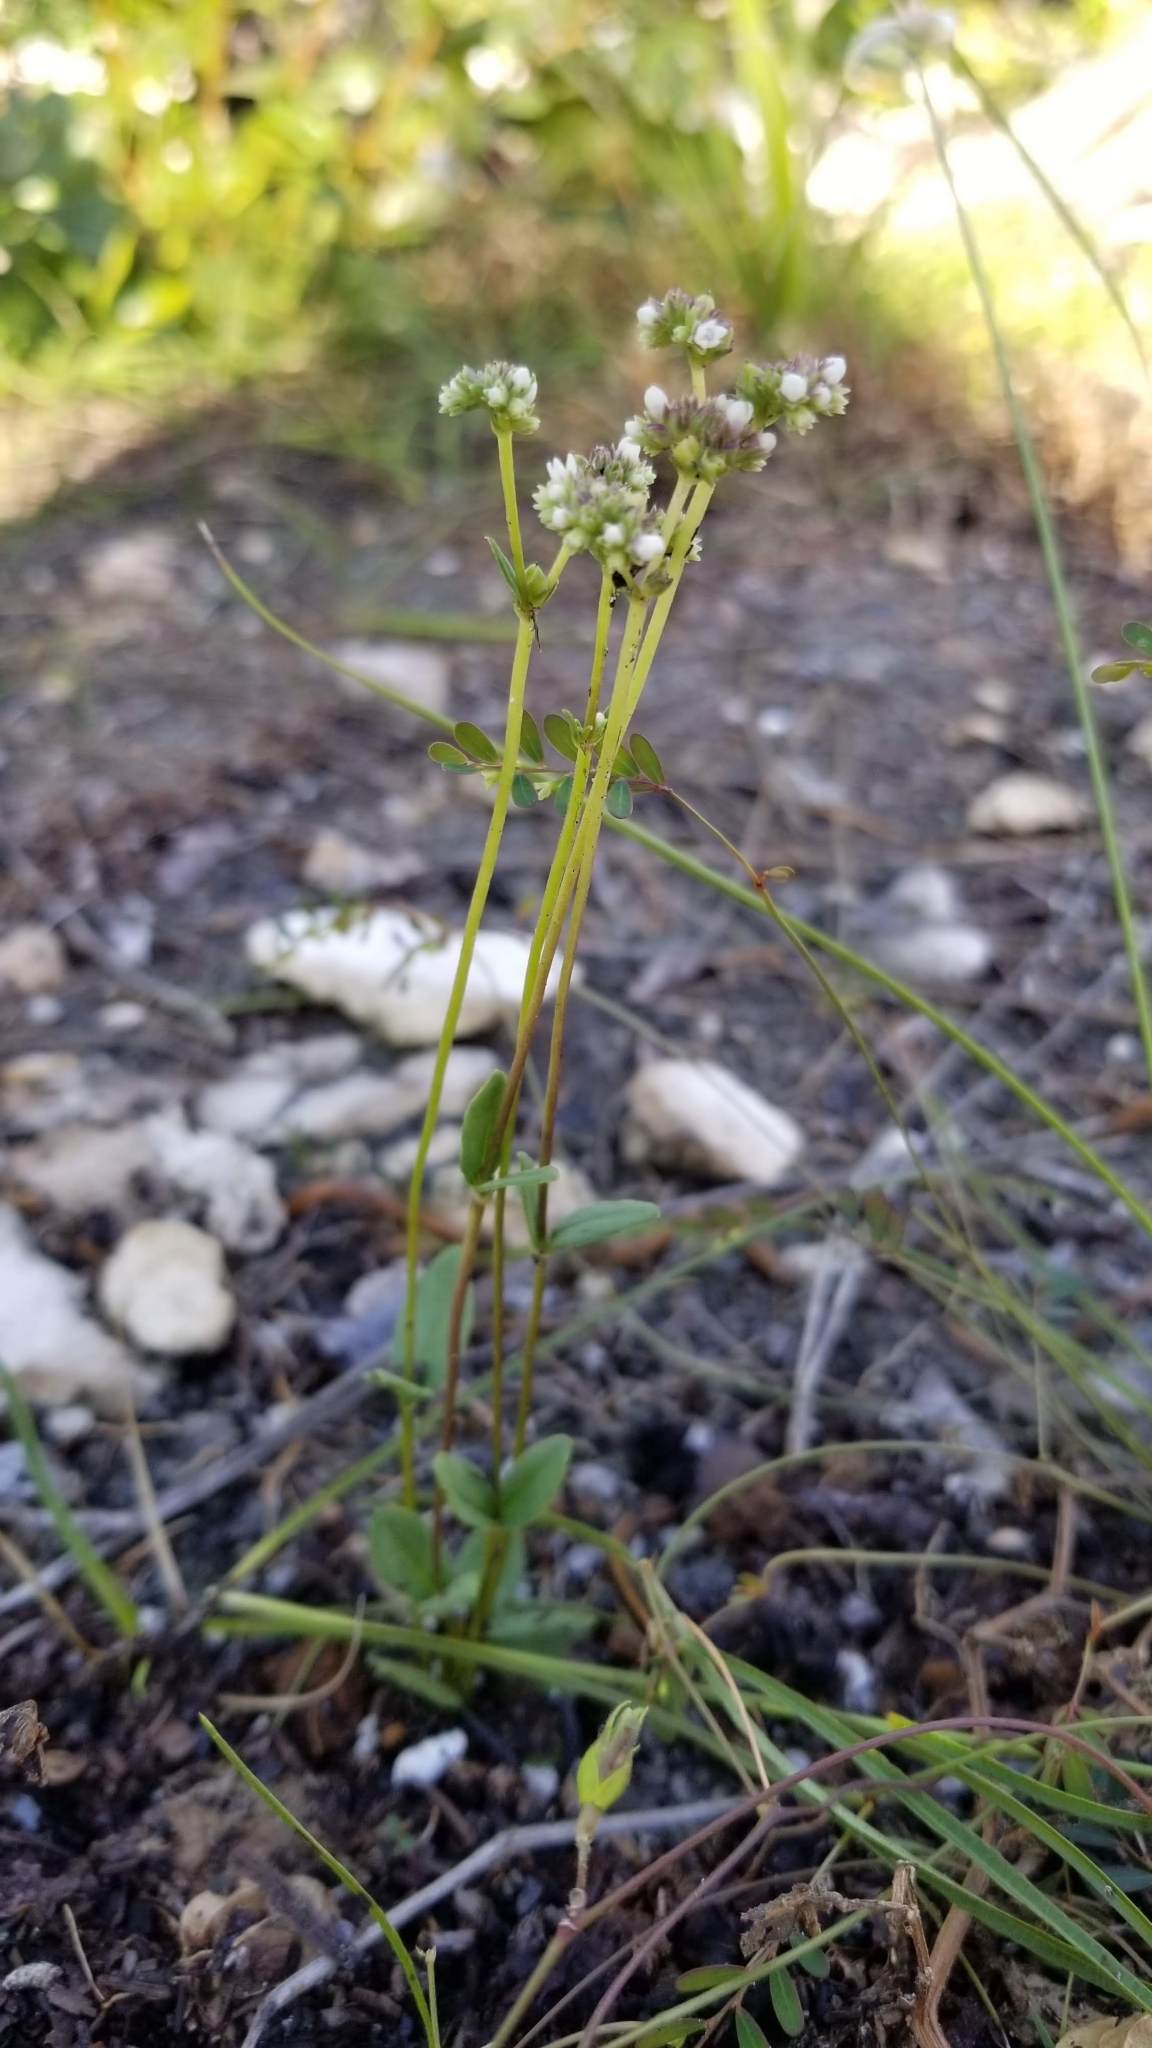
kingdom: Plantae
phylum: Tracheophyta
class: Magnoliopsida
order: Gentianales
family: Loganiaceae
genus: Mitreola
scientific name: Mitreola sessilifolia
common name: Swamp hornpod
